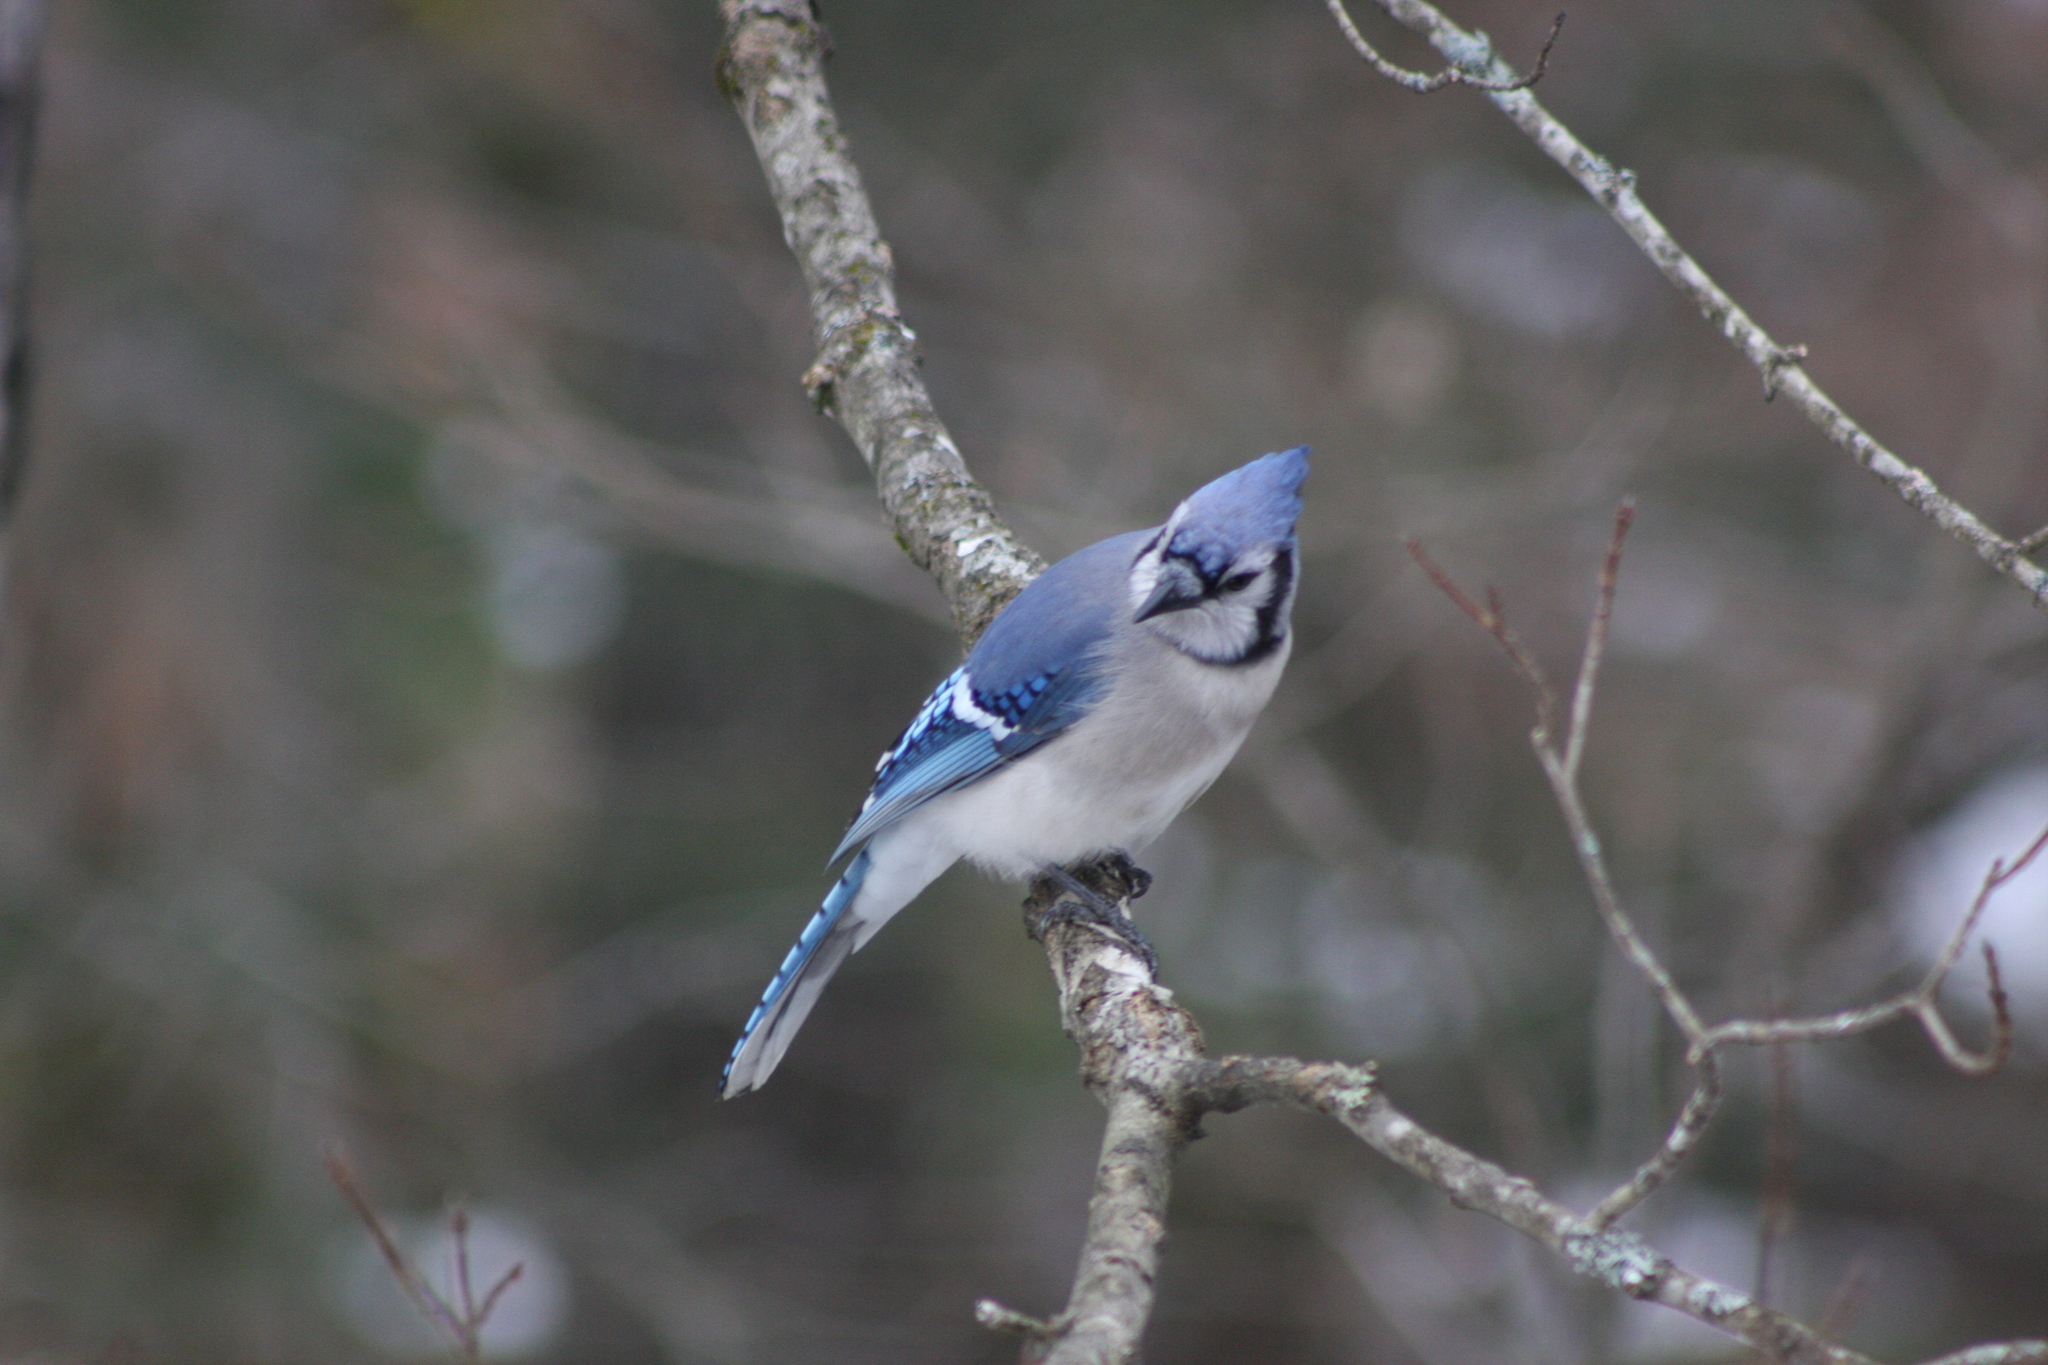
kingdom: Animalia
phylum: Chordata
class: Aves
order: Passeriformes
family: Corvidae
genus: Cyanocitta
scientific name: Cyanocitta cristata
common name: Blue jay
